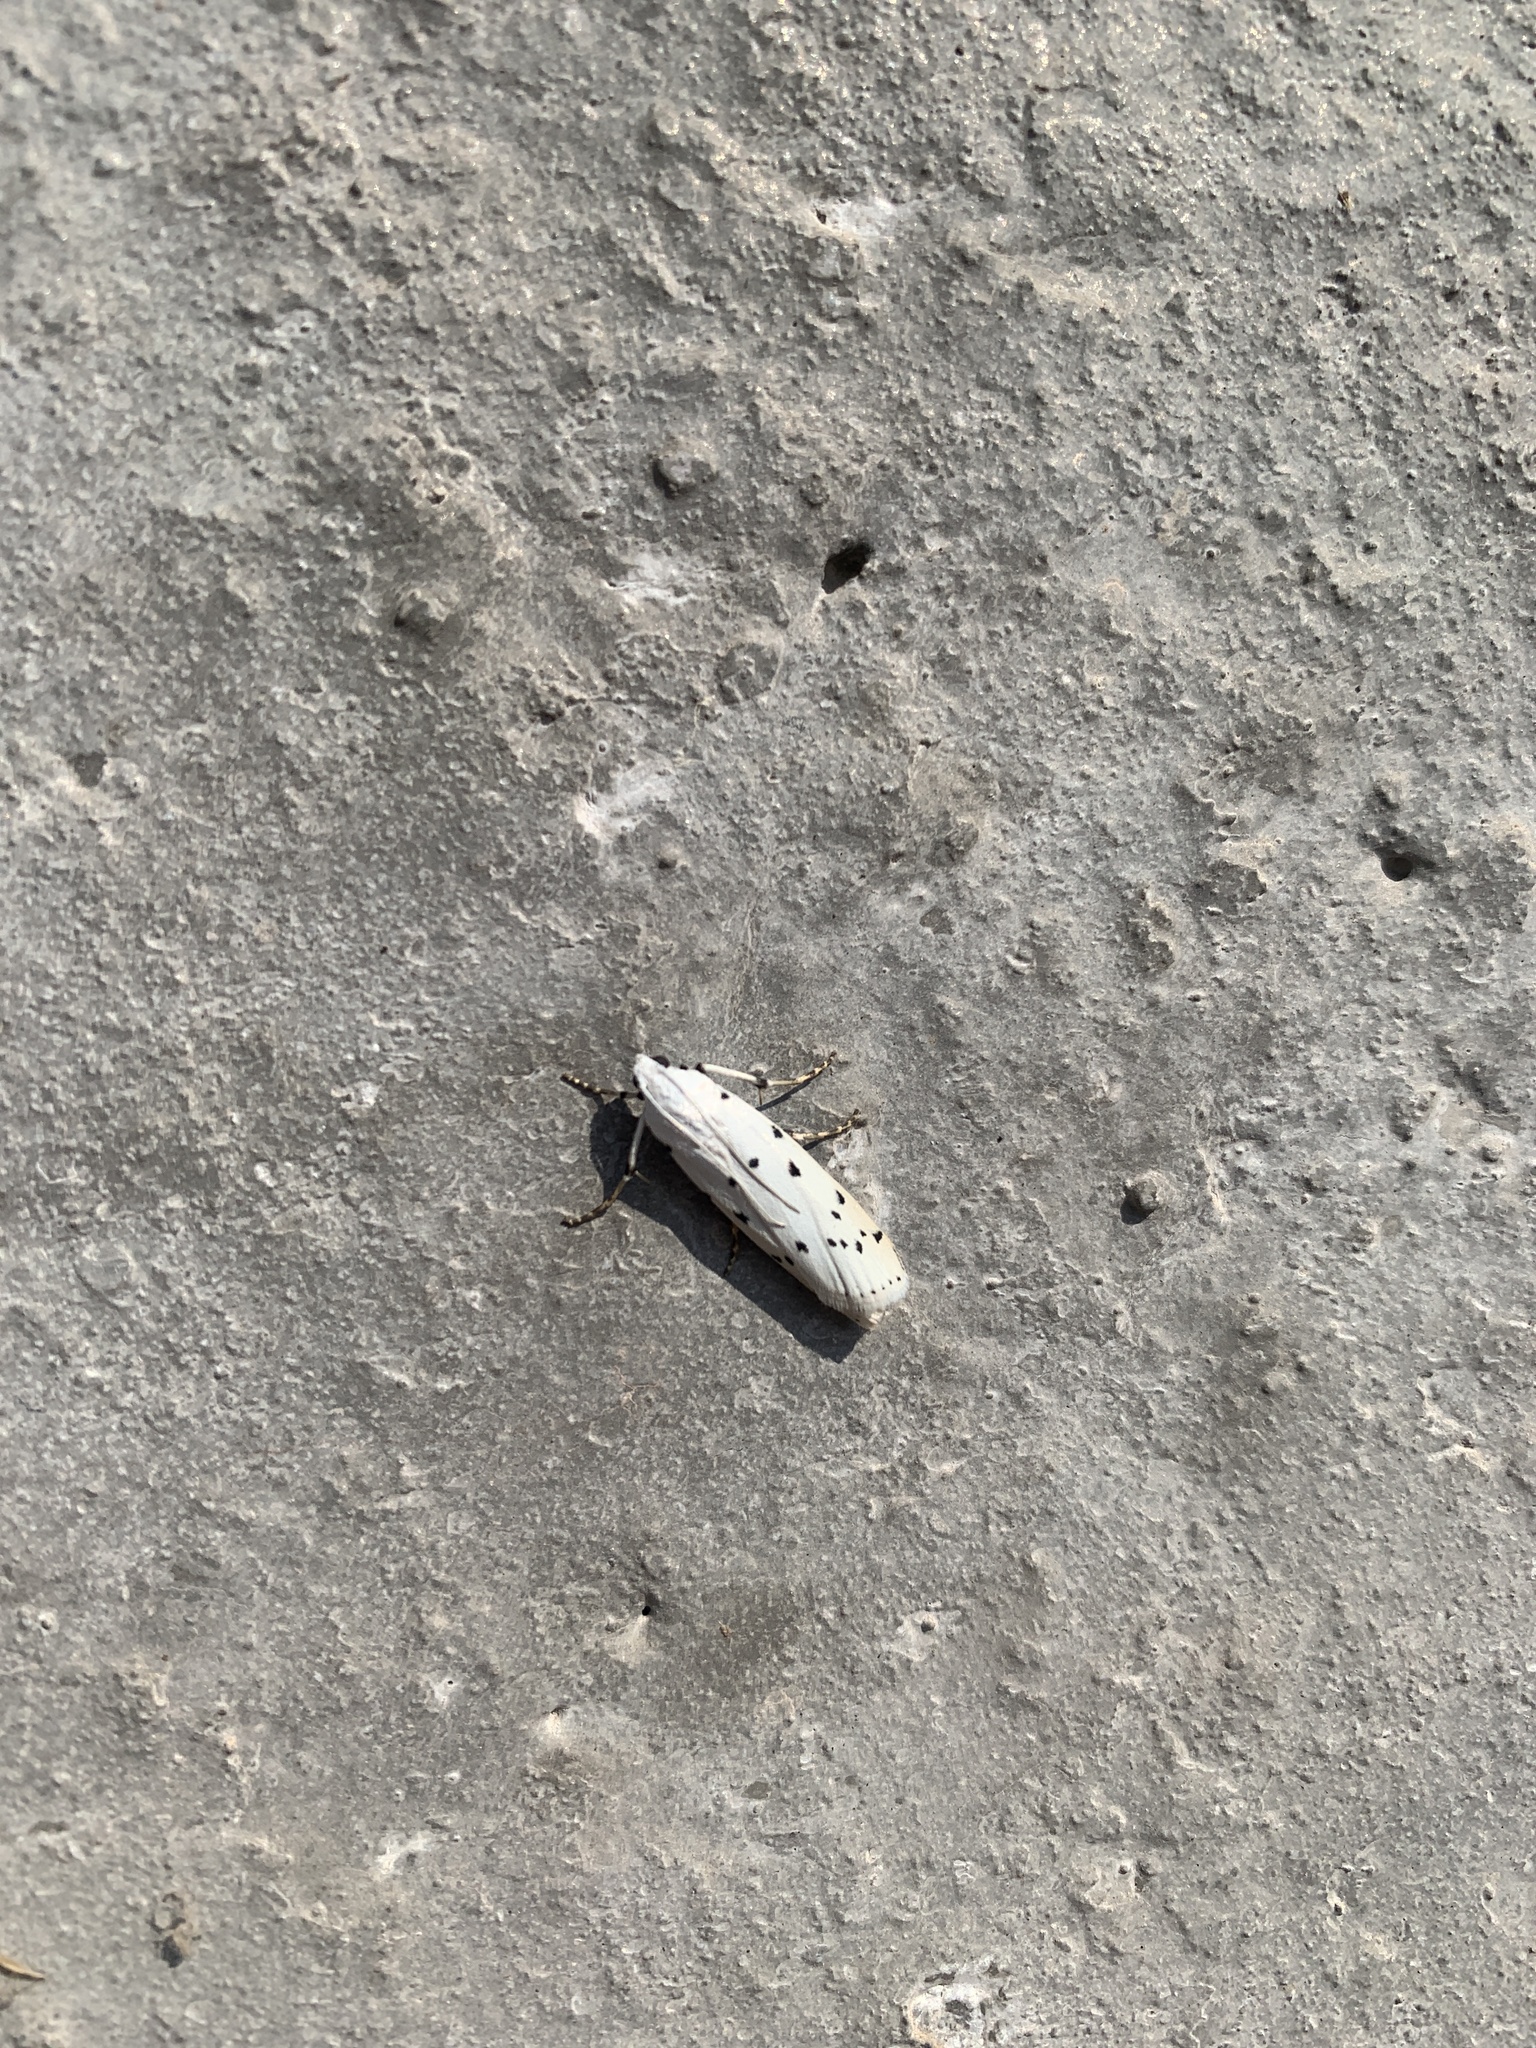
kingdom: Animalia
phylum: Arthropoda
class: Insecta
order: Lepidoptera
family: Pyralidae
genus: Myelois
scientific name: Myelois circumvoluta
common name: Thistle ermine
